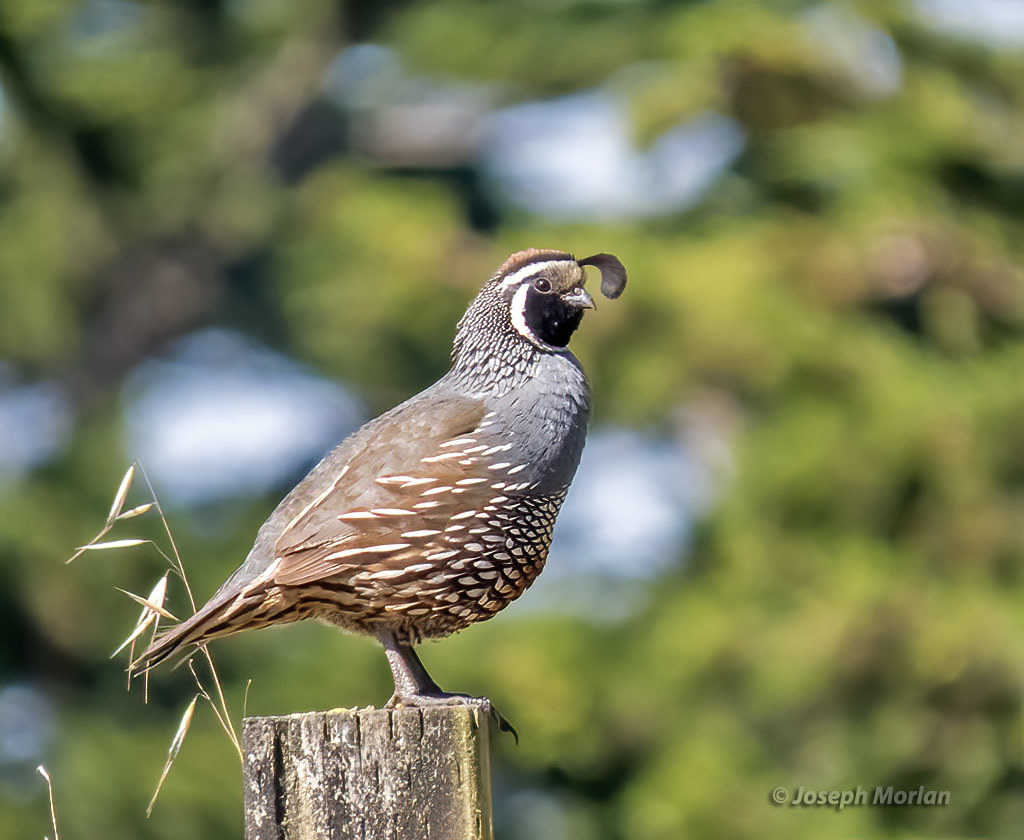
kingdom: Animalia
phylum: Chordata
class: Aves
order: Galliformes
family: Odontophoridae
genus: Callipepla
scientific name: Callipepla californica
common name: California quail
